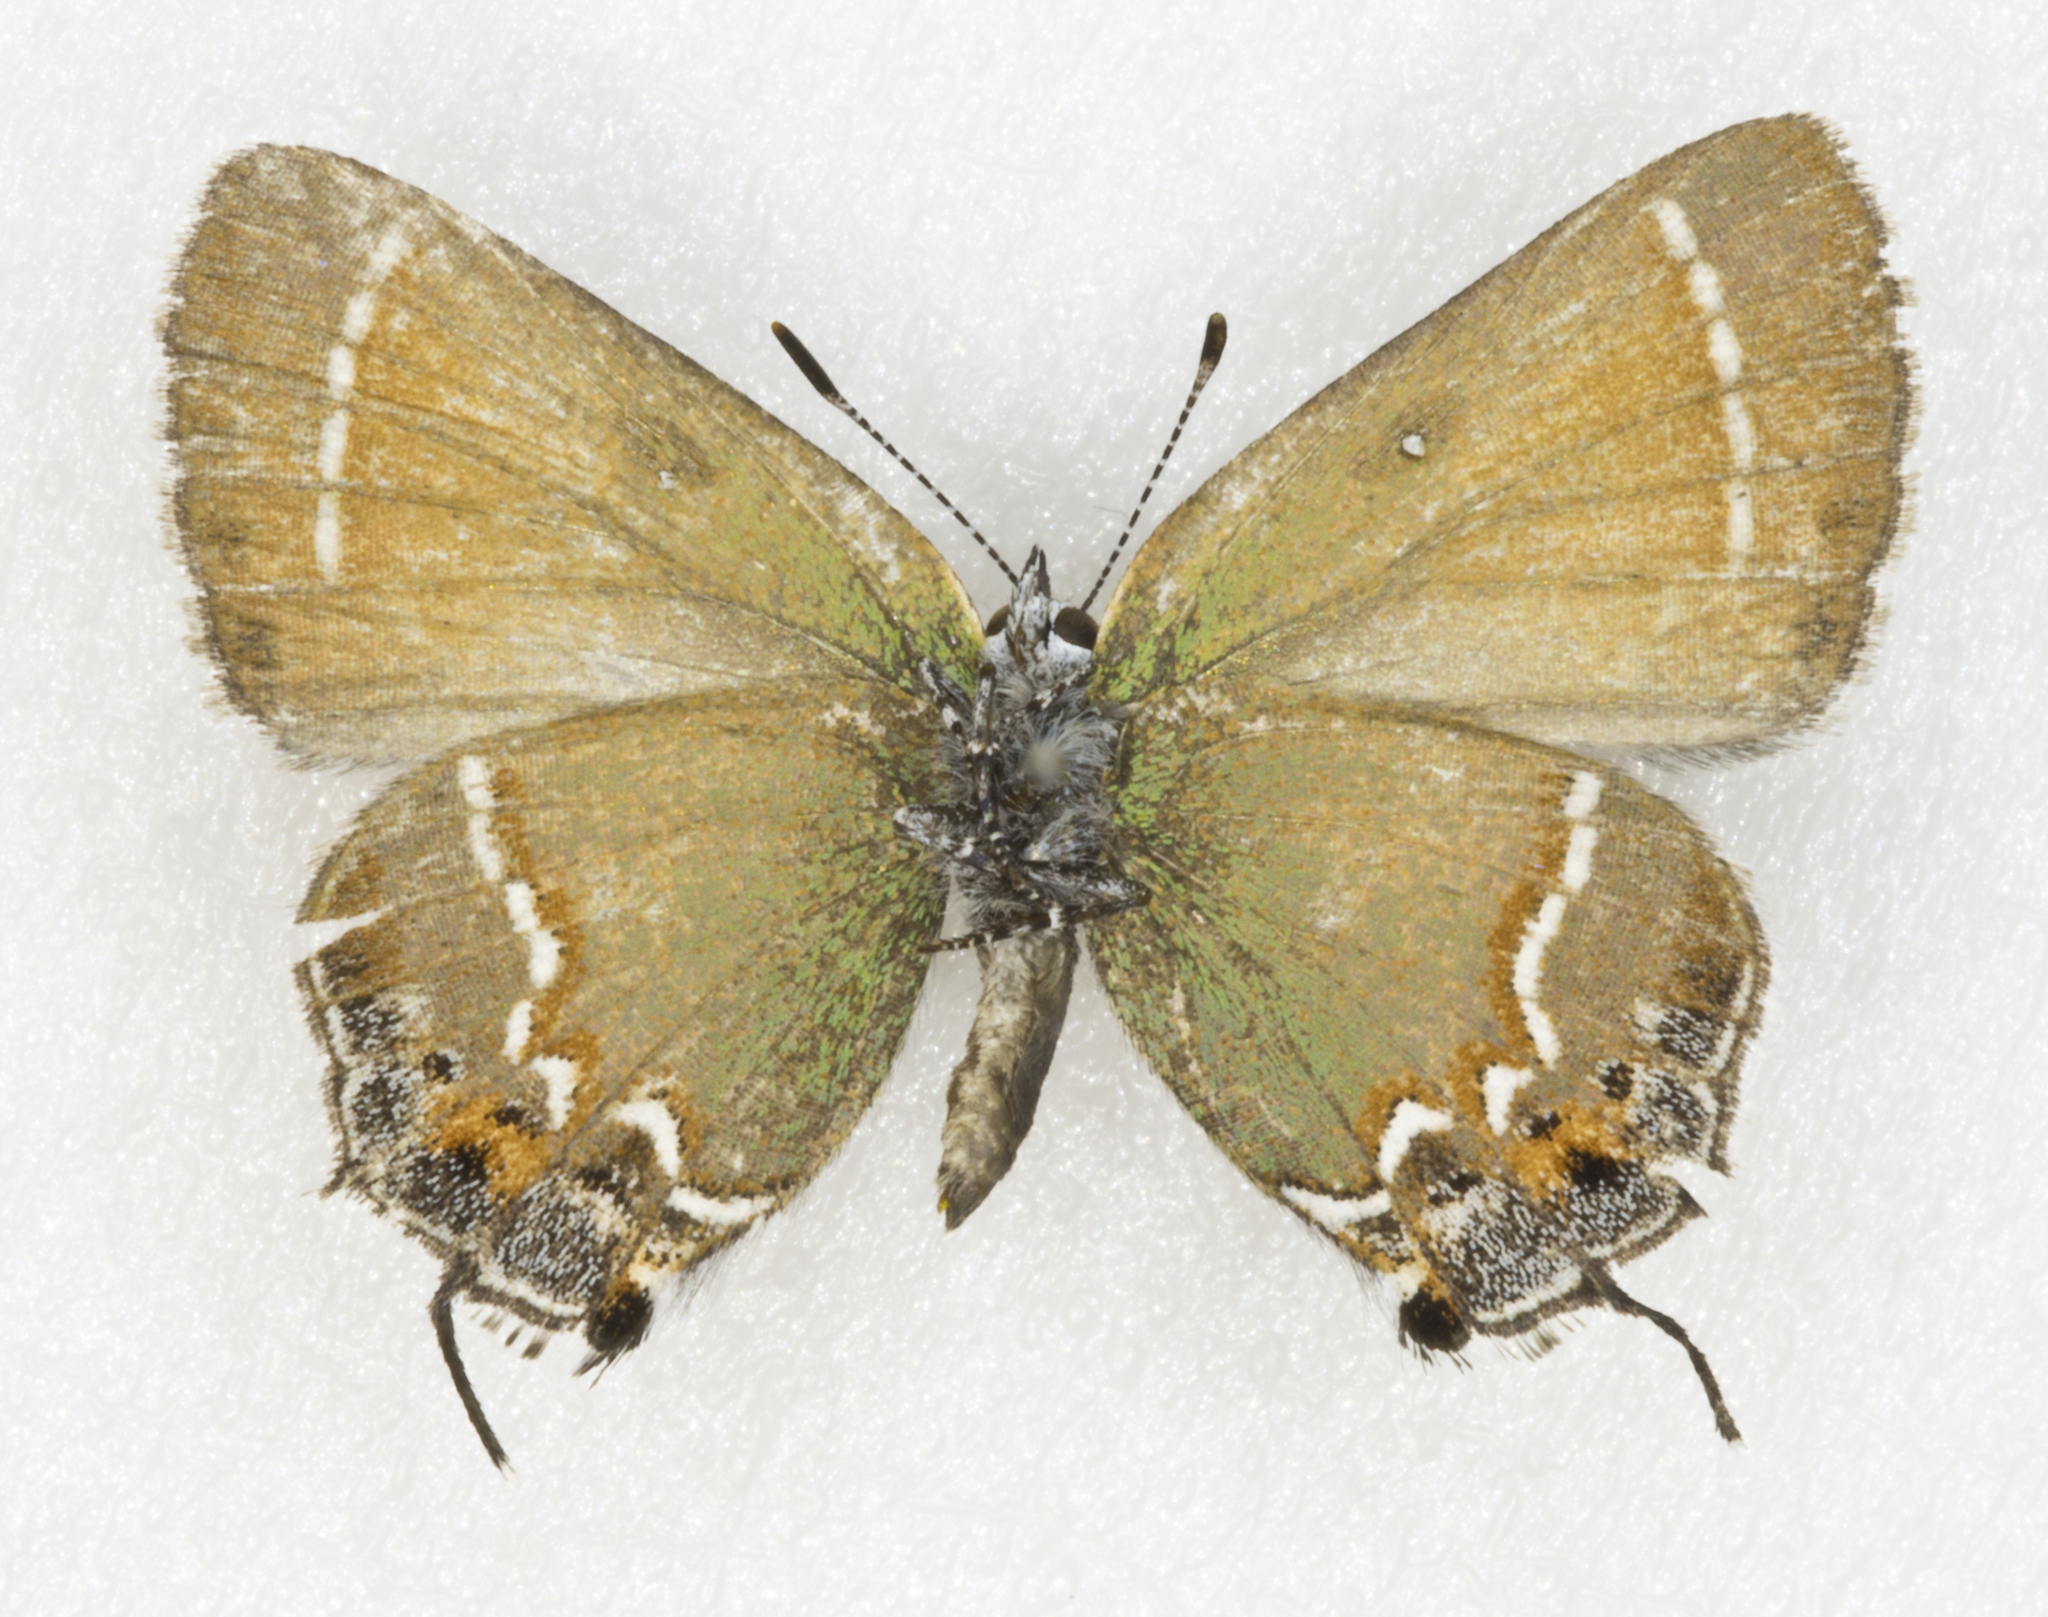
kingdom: Animalia
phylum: Arthropoda
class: Insecta
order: Lepidoptera
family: Lycaenidae
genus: Mitoura
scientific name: Mitoura siva
